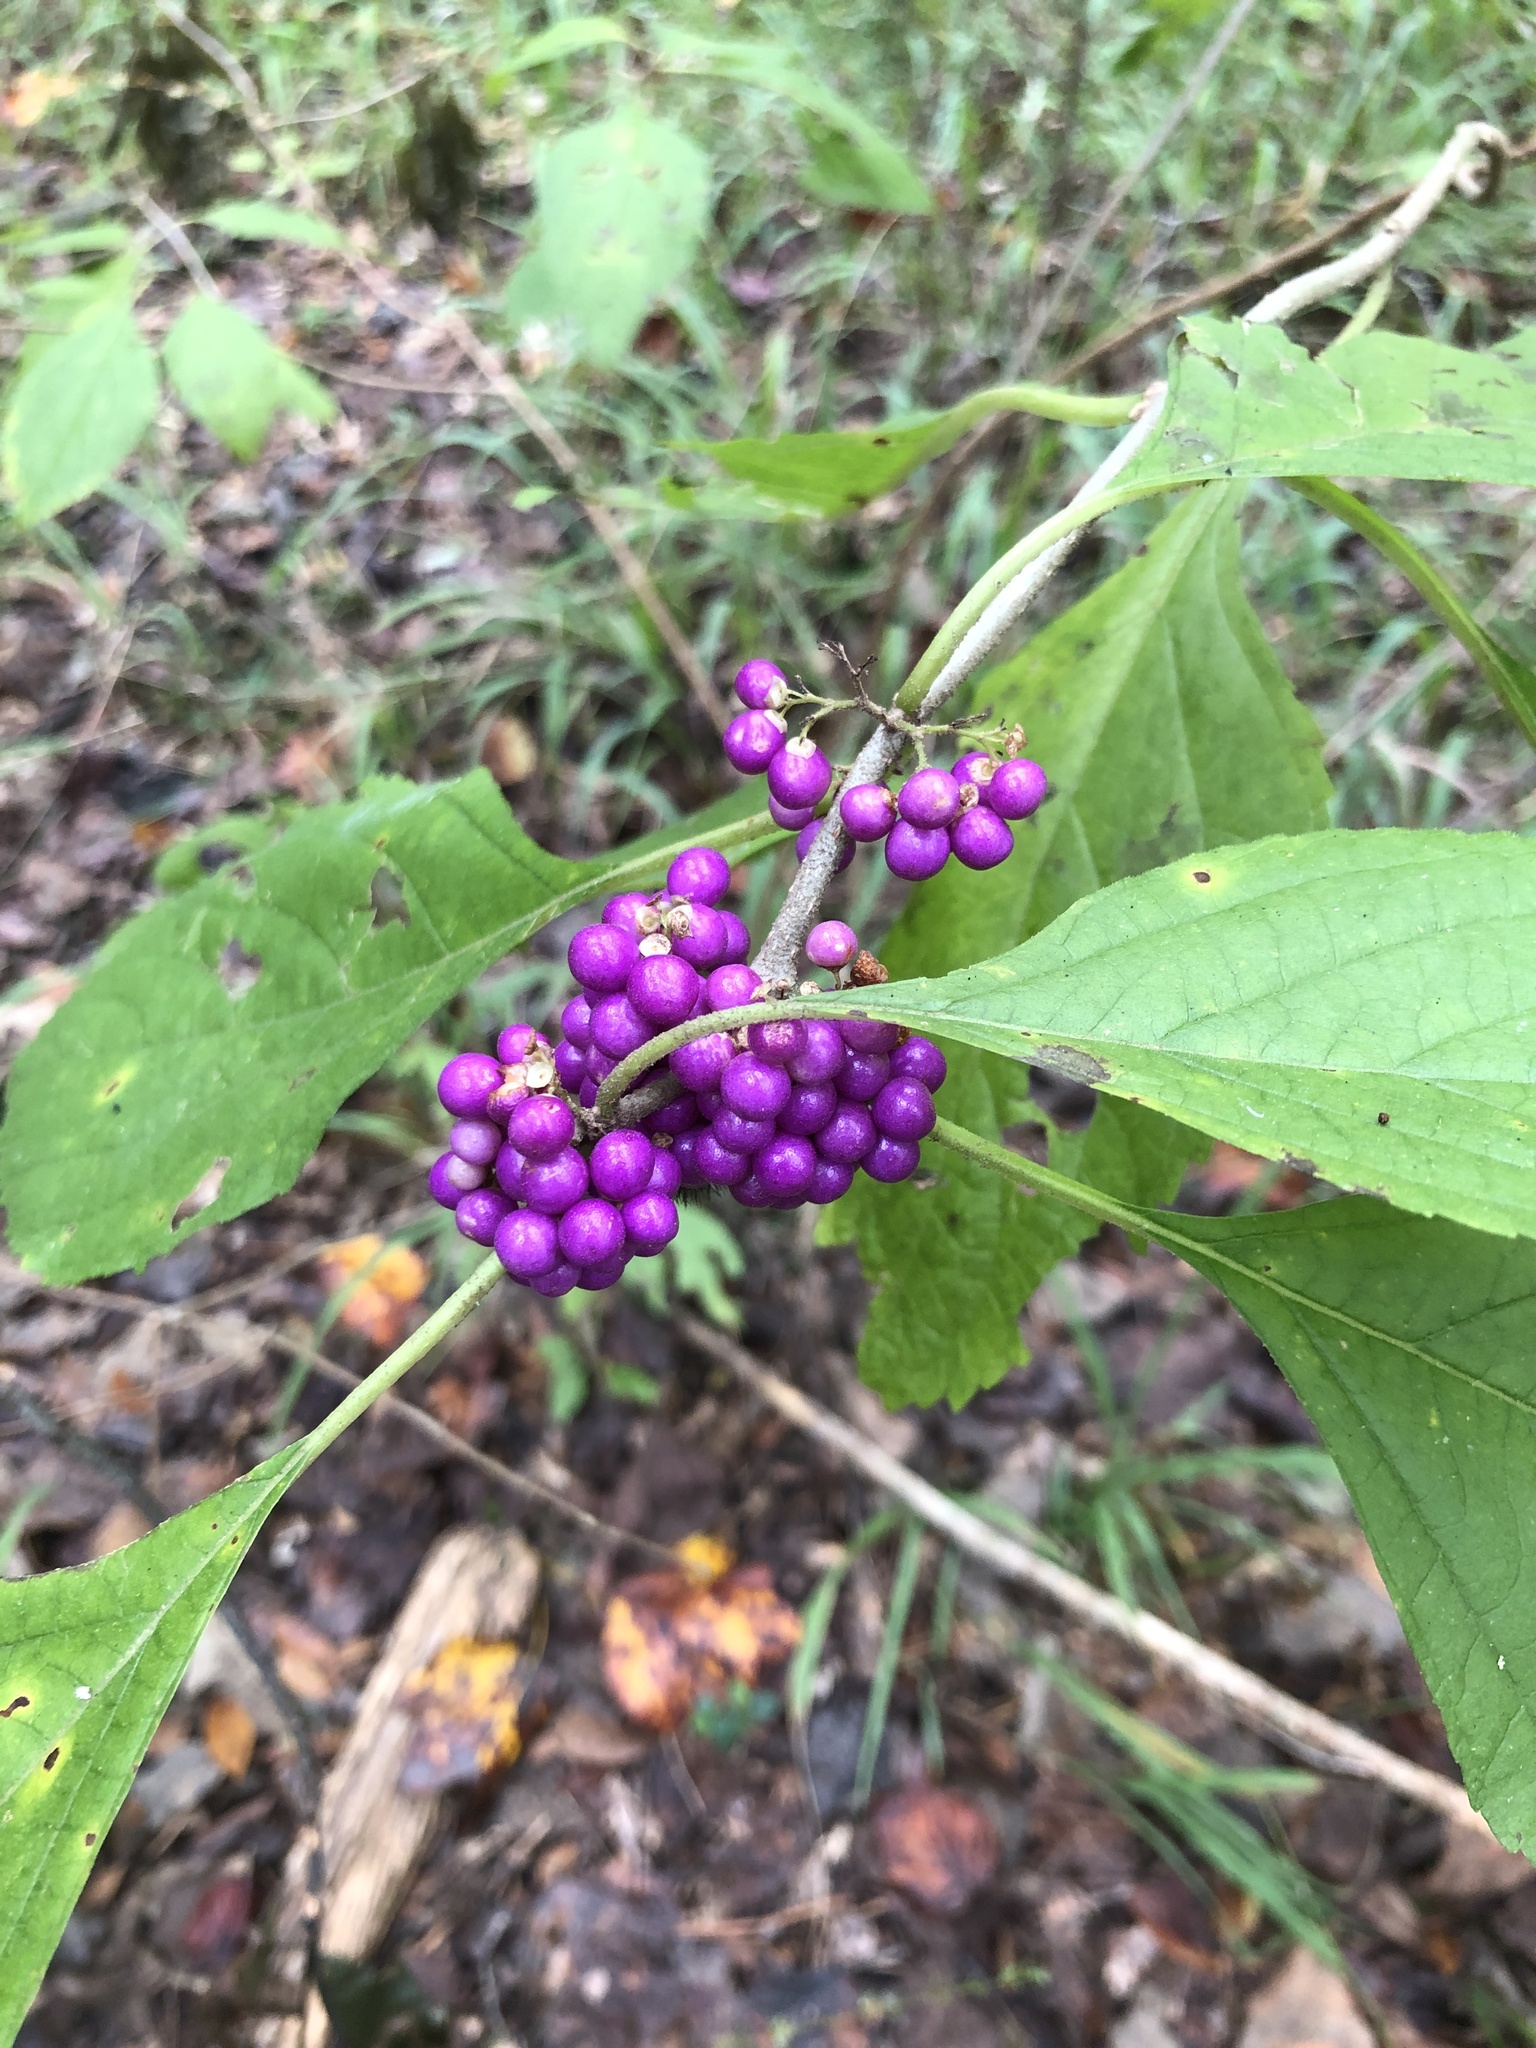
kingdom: Plantae
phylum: Tracheophyta
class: Magnoliopsida
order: Lamiales
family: Lamiaceae
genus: Callicarpa
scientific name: Callicarpa americana
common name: American beautyberry
